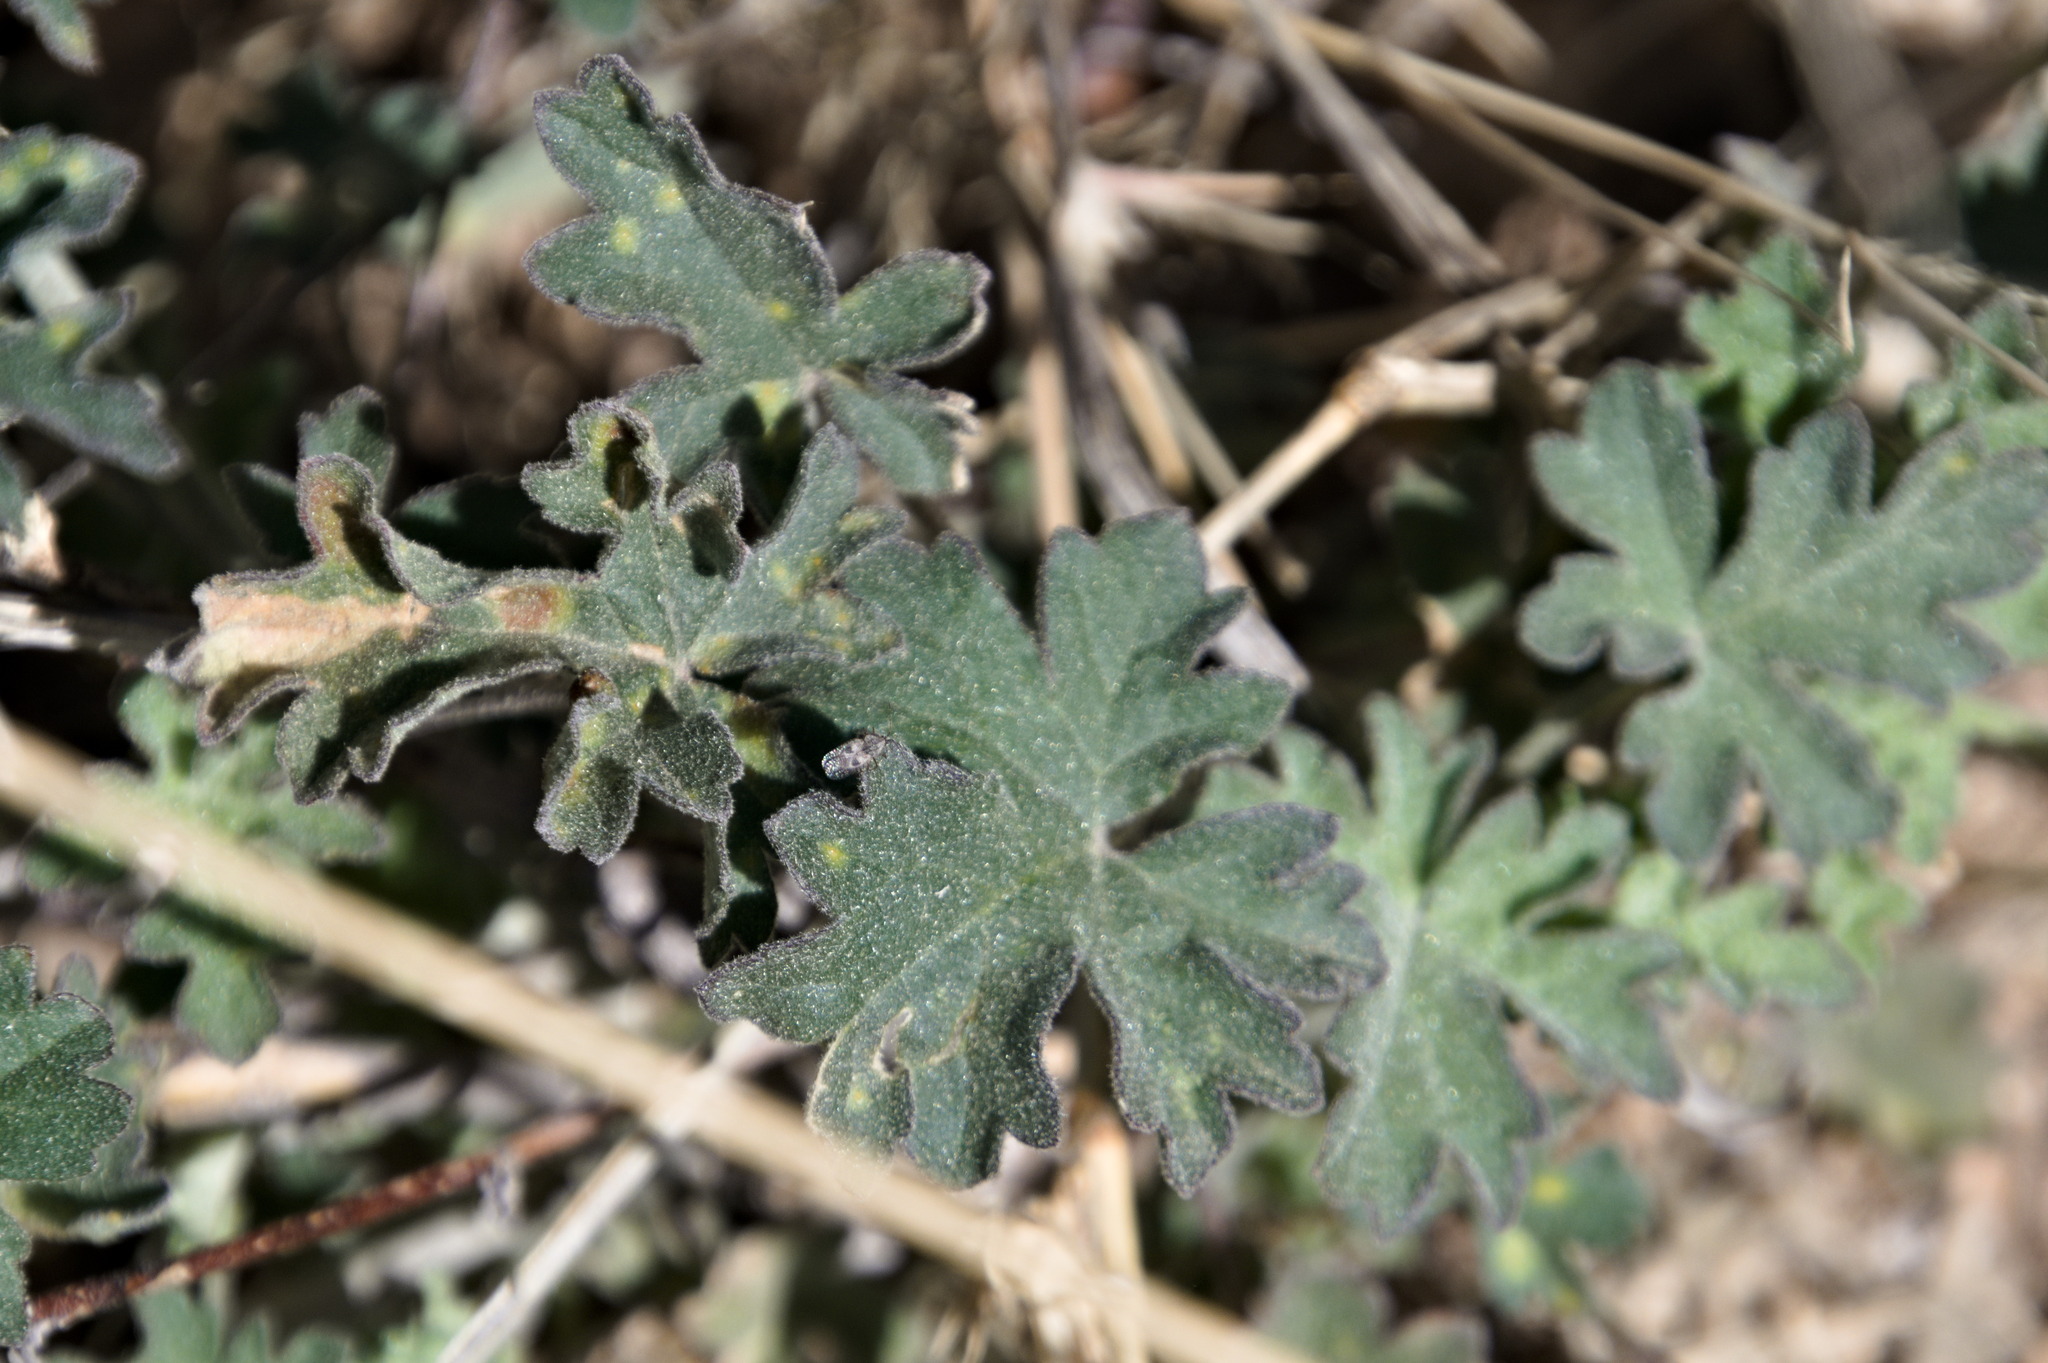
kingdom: Plantae
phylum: Tracheophyta
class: Magnoliopsida
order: Malvales
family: Malvaceae
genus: Sphaeralcea
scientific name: Sphaeralcea laxa
